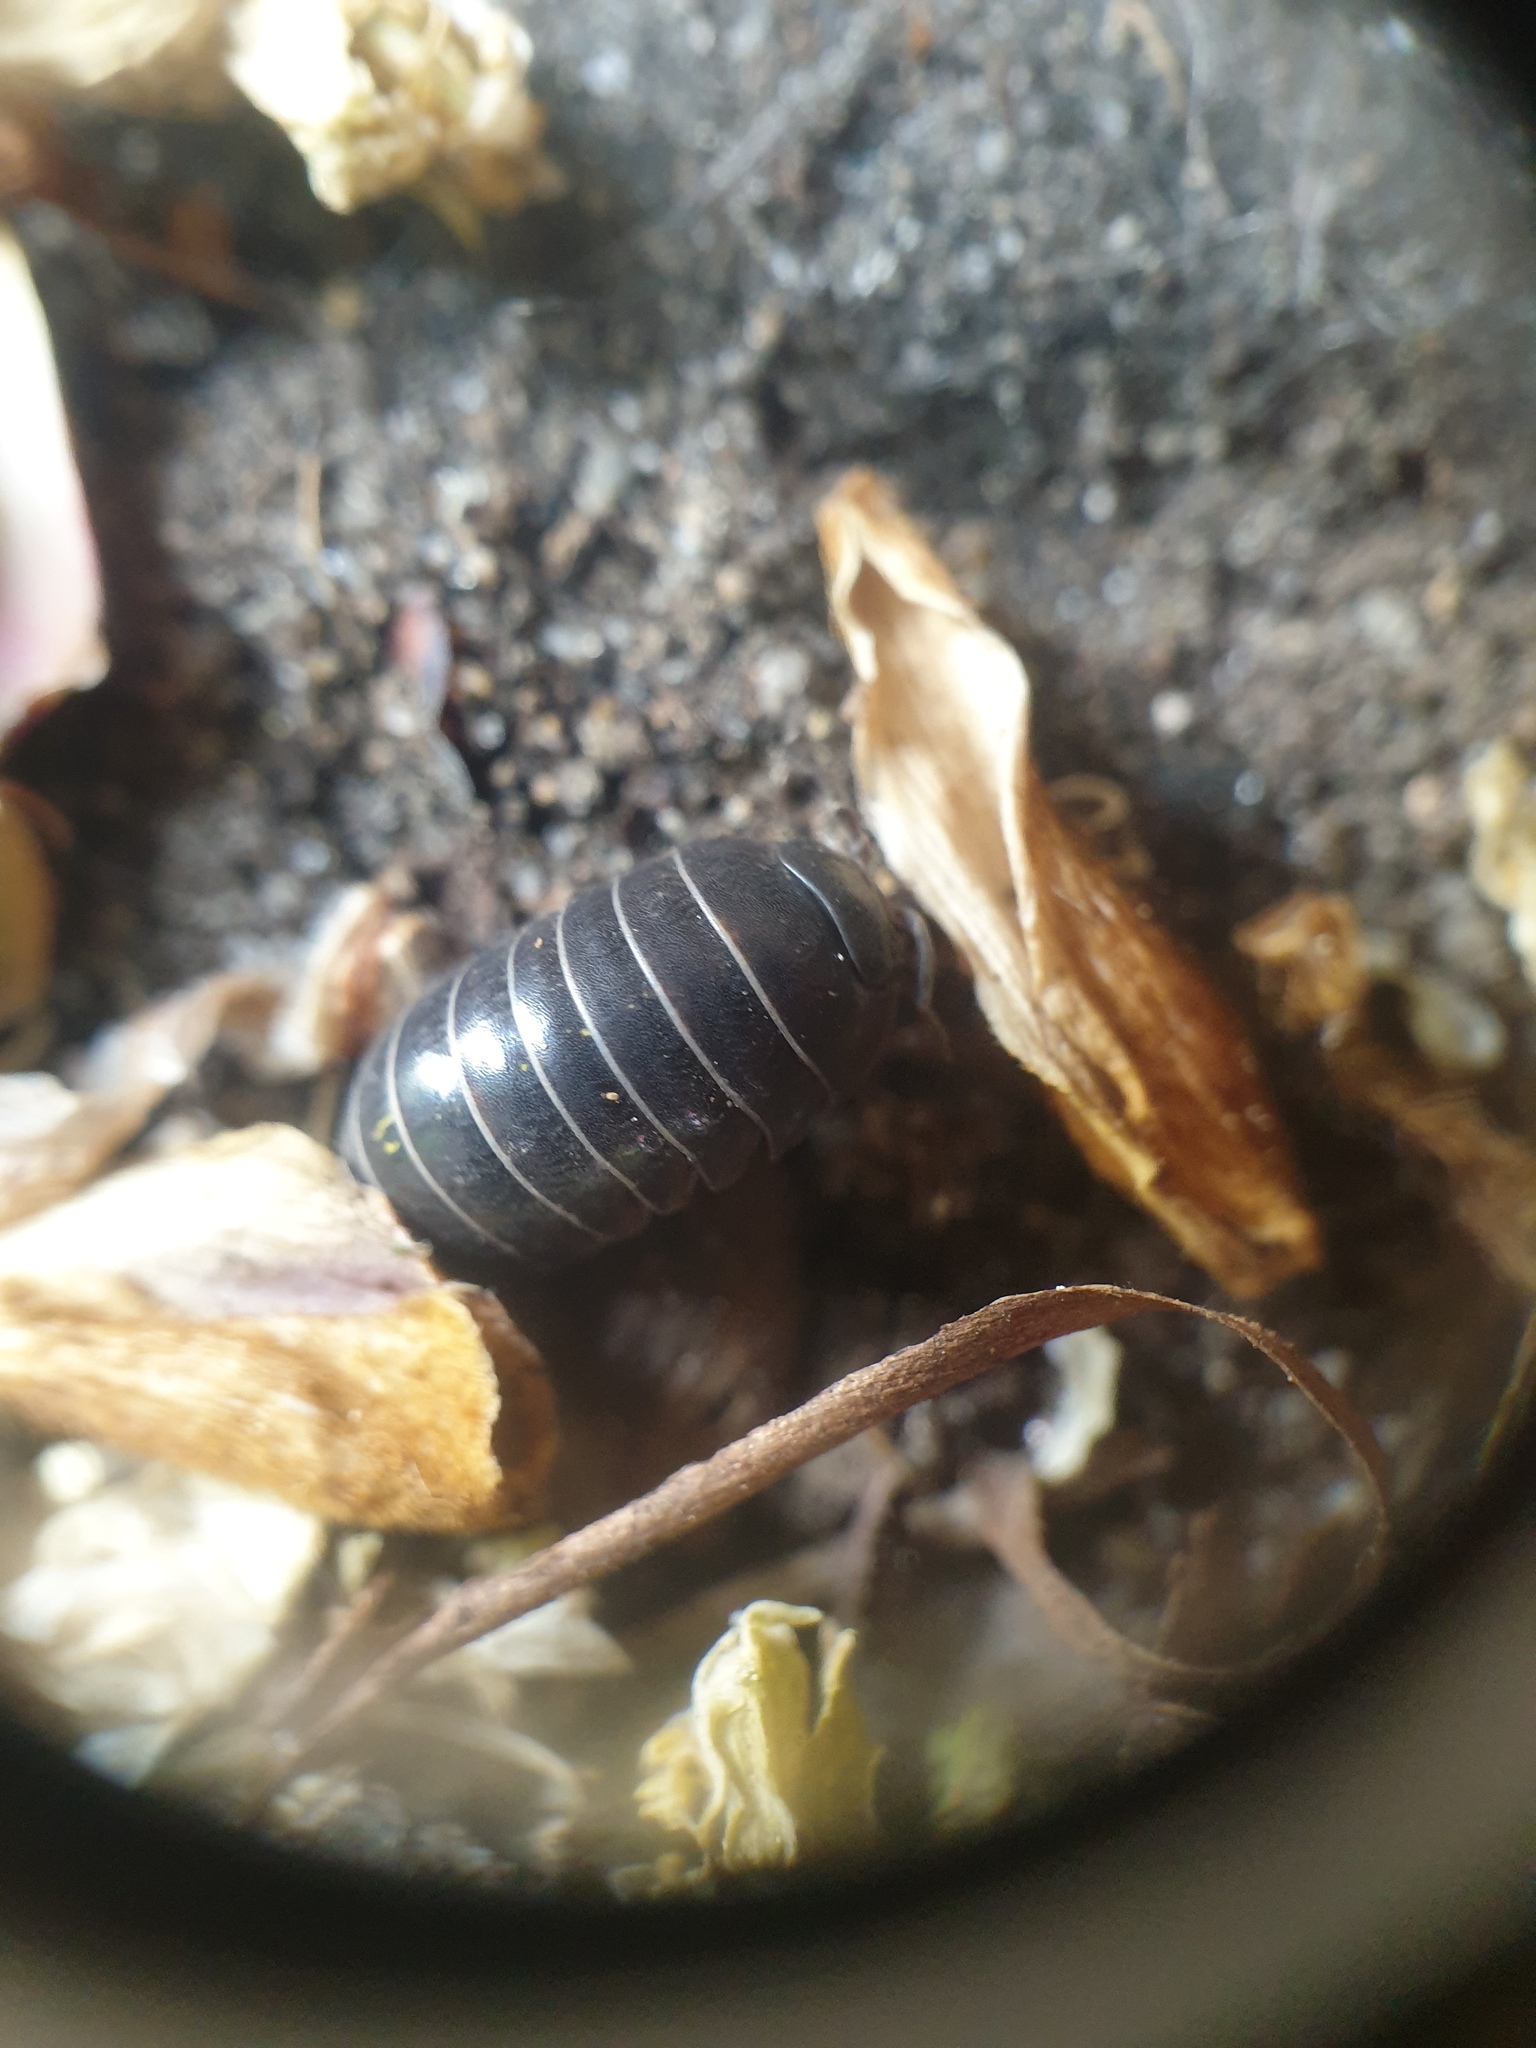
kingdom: Animalia
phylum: Arthropoda
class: Malacostraca
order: Isopoda
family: Armadillidiidae
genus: Armadillidium
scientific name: Armadillidium vulgare
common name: Common pill woodlouse
